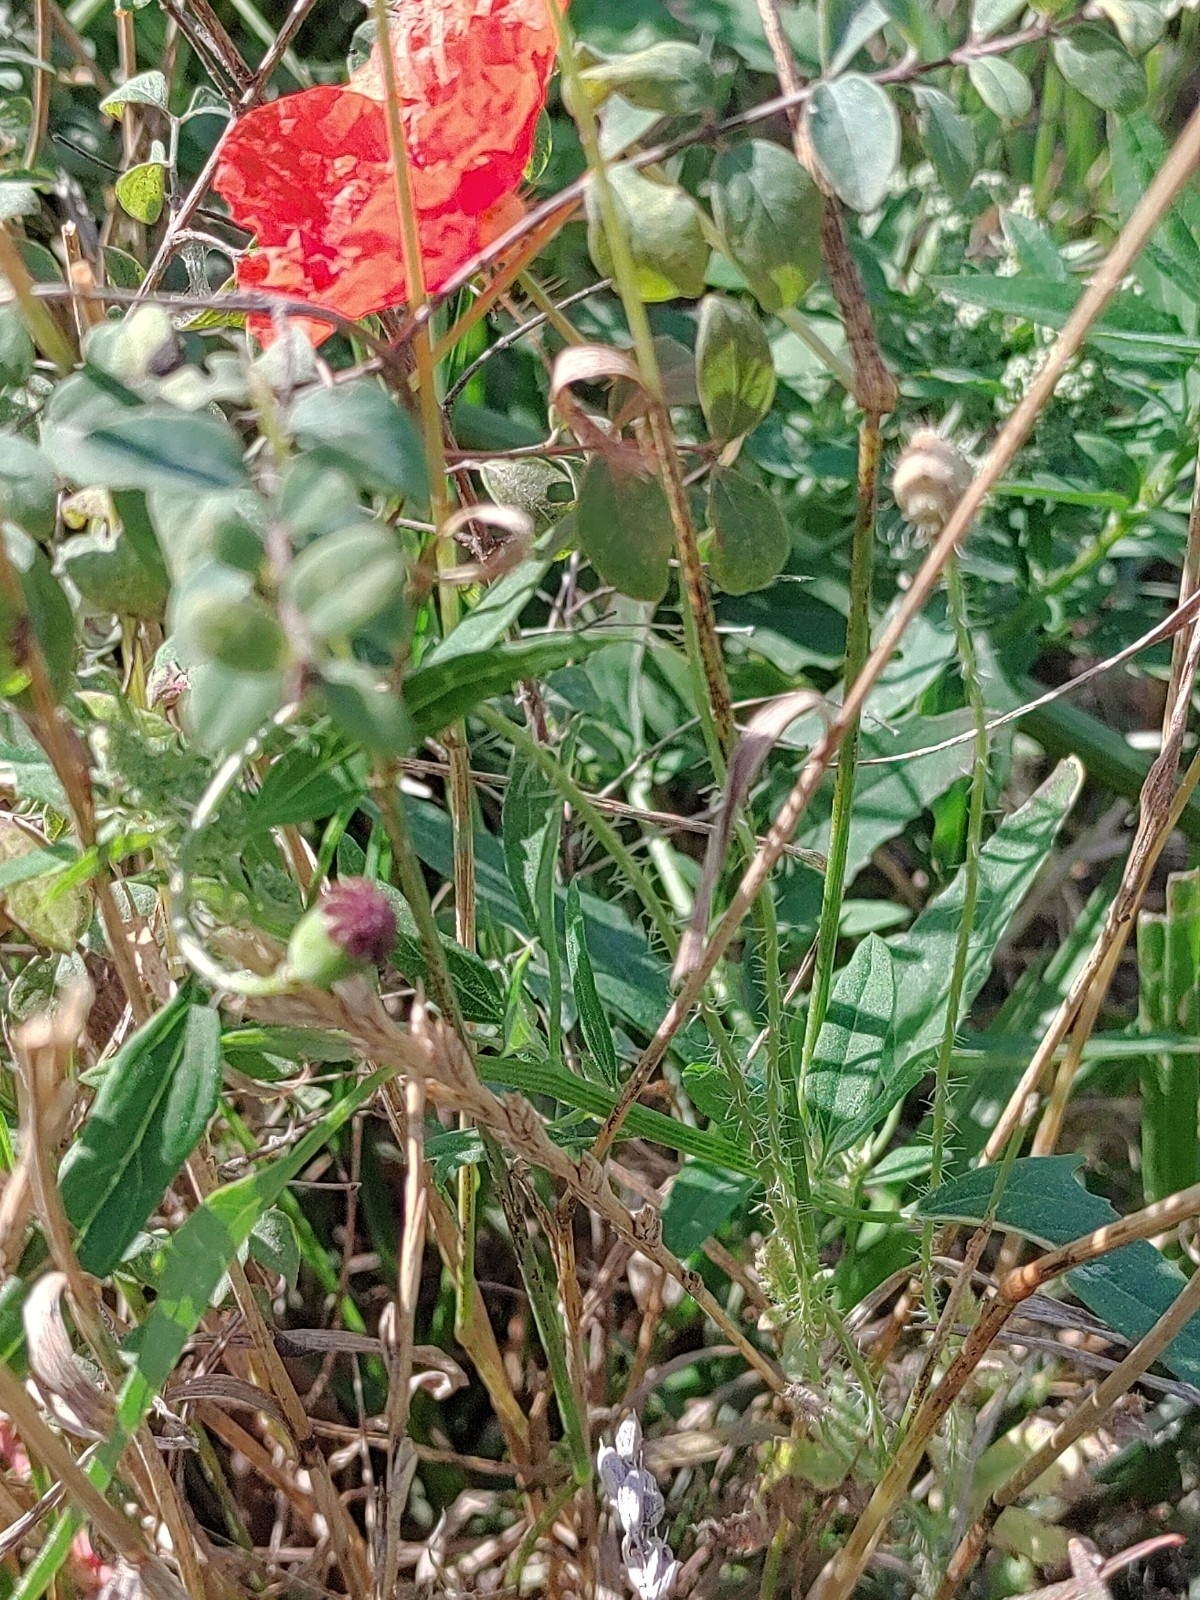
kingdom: Plantae
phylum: Tracheophyta
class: Magnoliopsida
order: Ranunculales
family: Papaveraceae
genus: Papaver
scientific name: Papaver rhoeas
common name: Corn poppy
